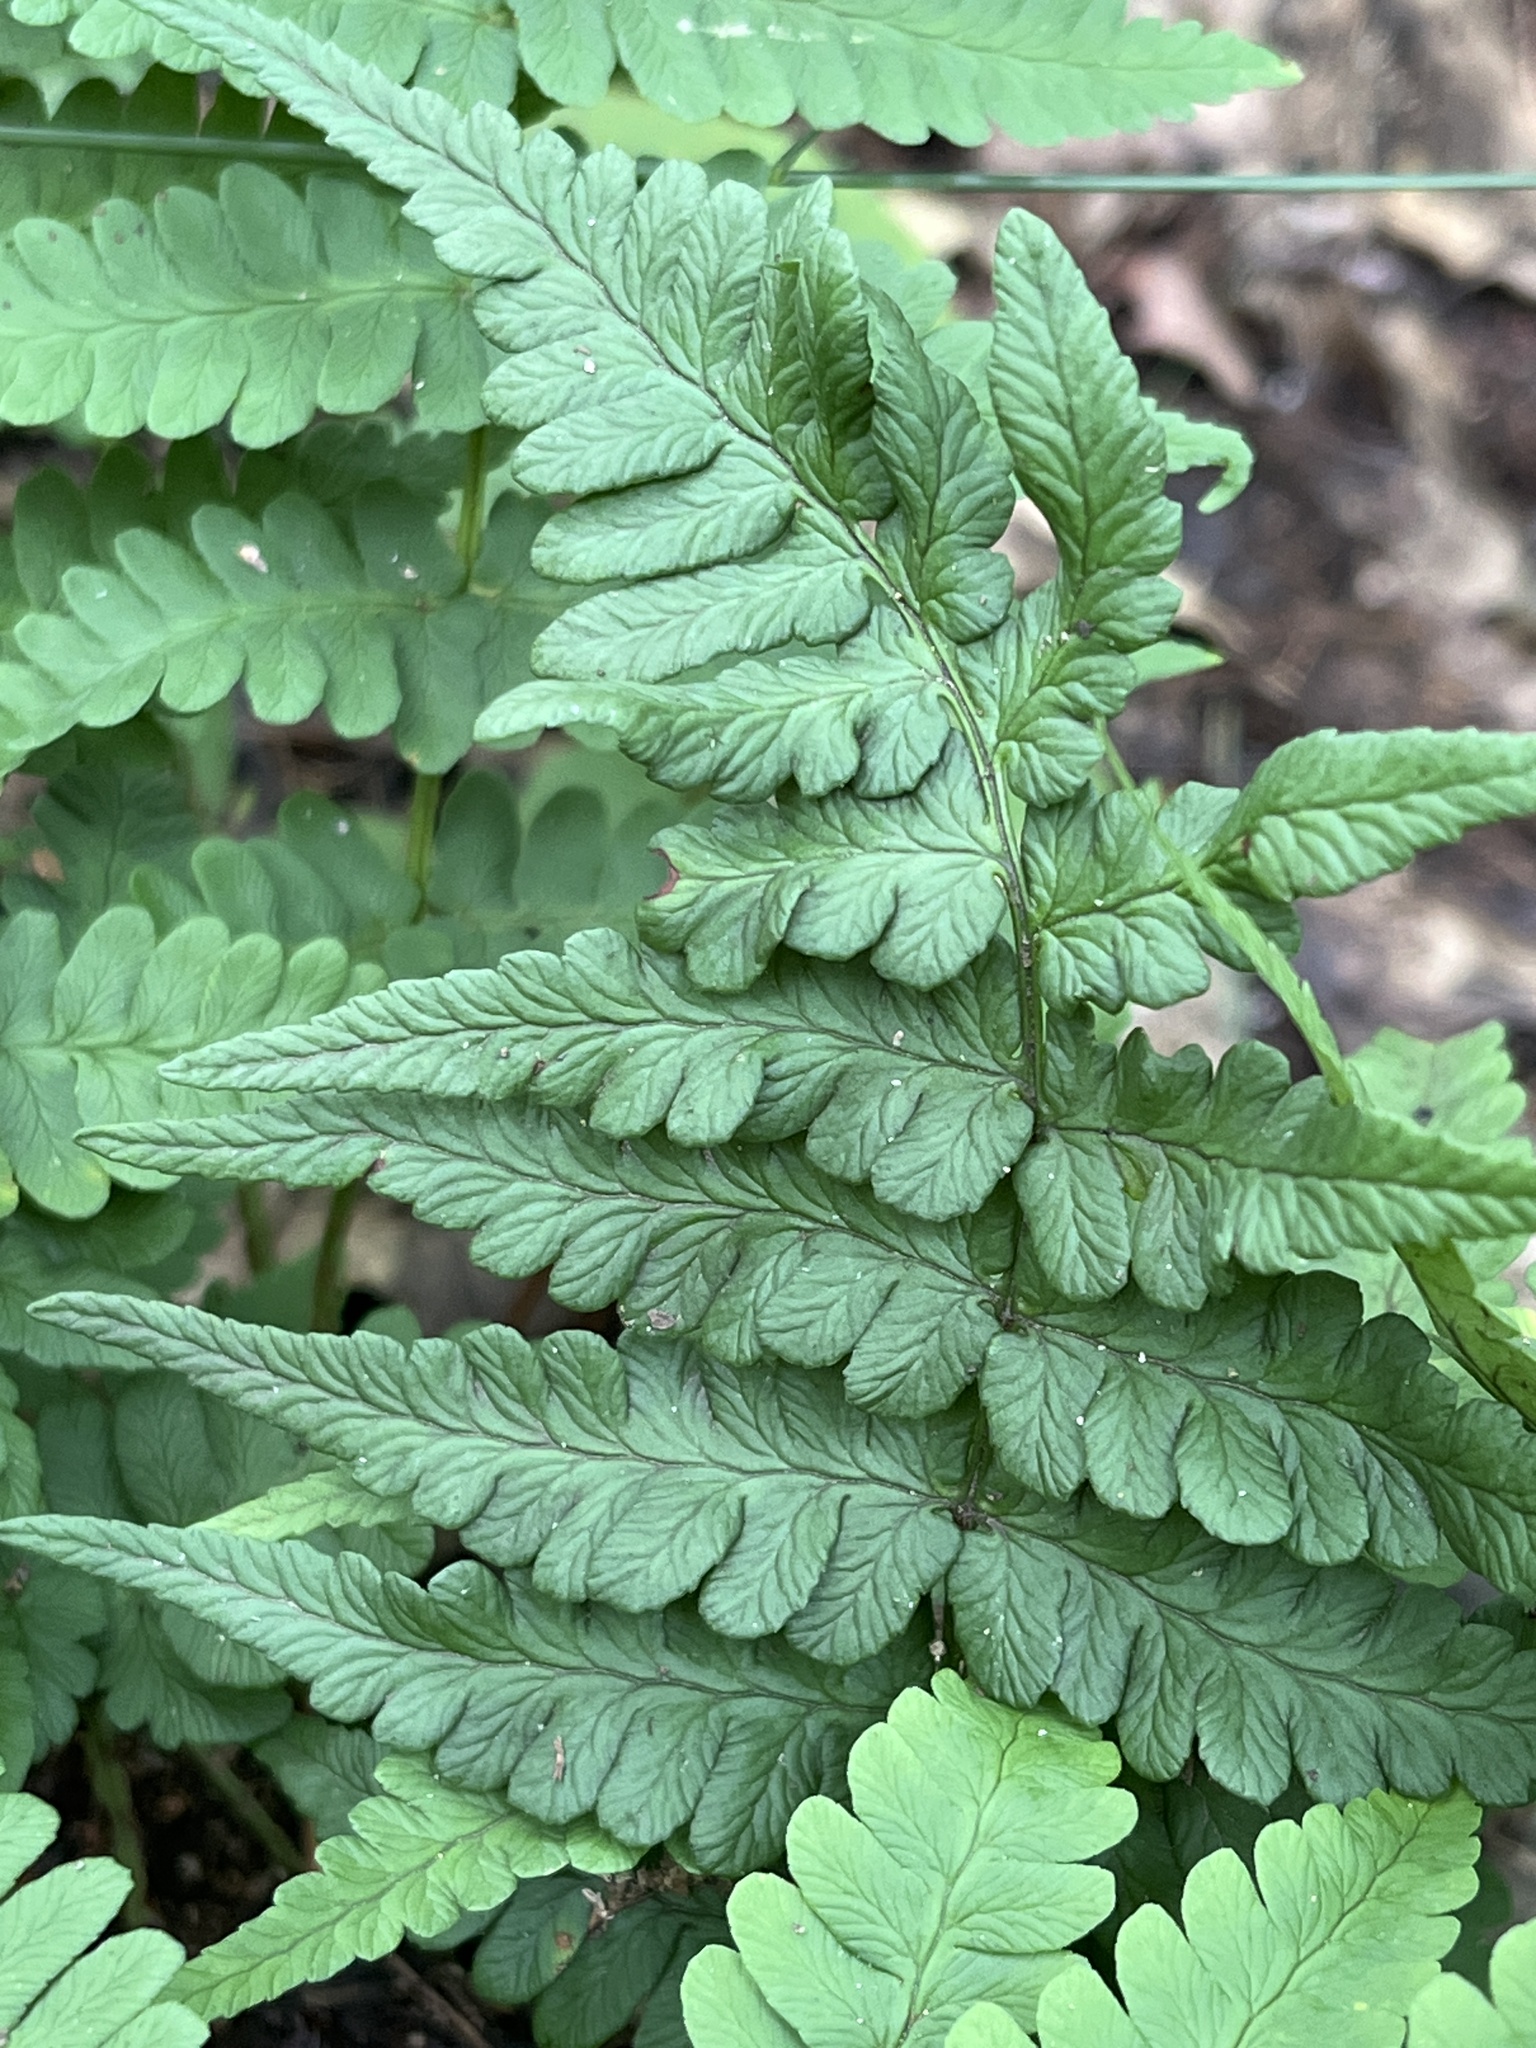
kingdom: Plantae
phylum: Tracheophyta
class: Polypodiopsida
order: Polypodiales
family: Dryopteridaceae
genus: Dryopteris
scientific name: Dryopteris marginalis
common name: Marginal wood fern
